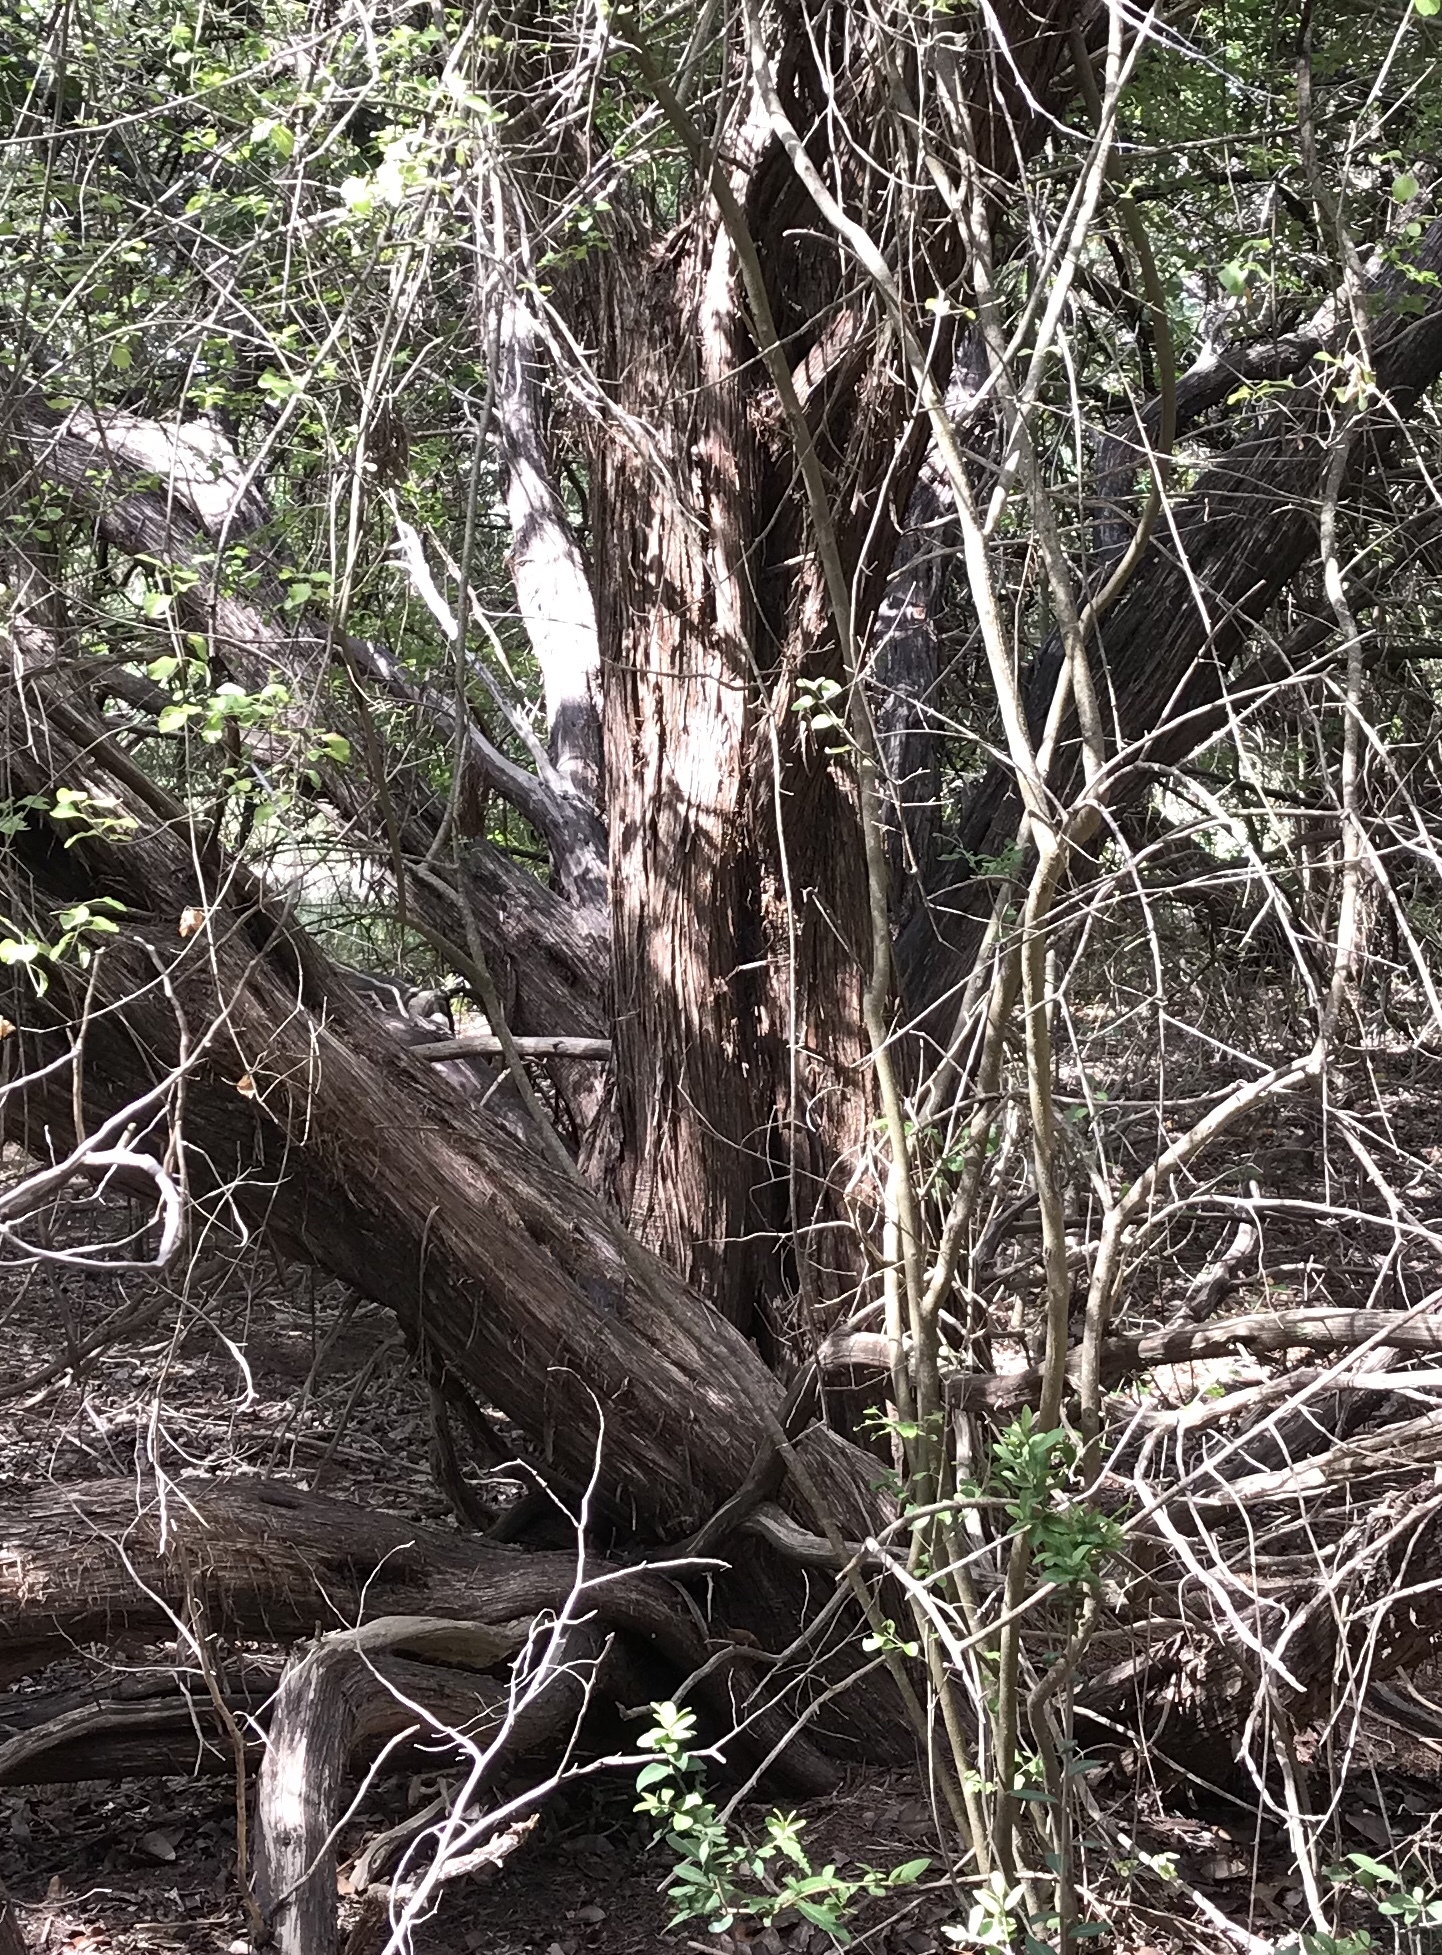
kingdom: Plantae
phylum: Tracheophyta
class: Pinopsida
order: Pinales
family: Cupressaceae
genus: Juniperus
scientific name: Juniperus ashei
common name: Mexican juniper
